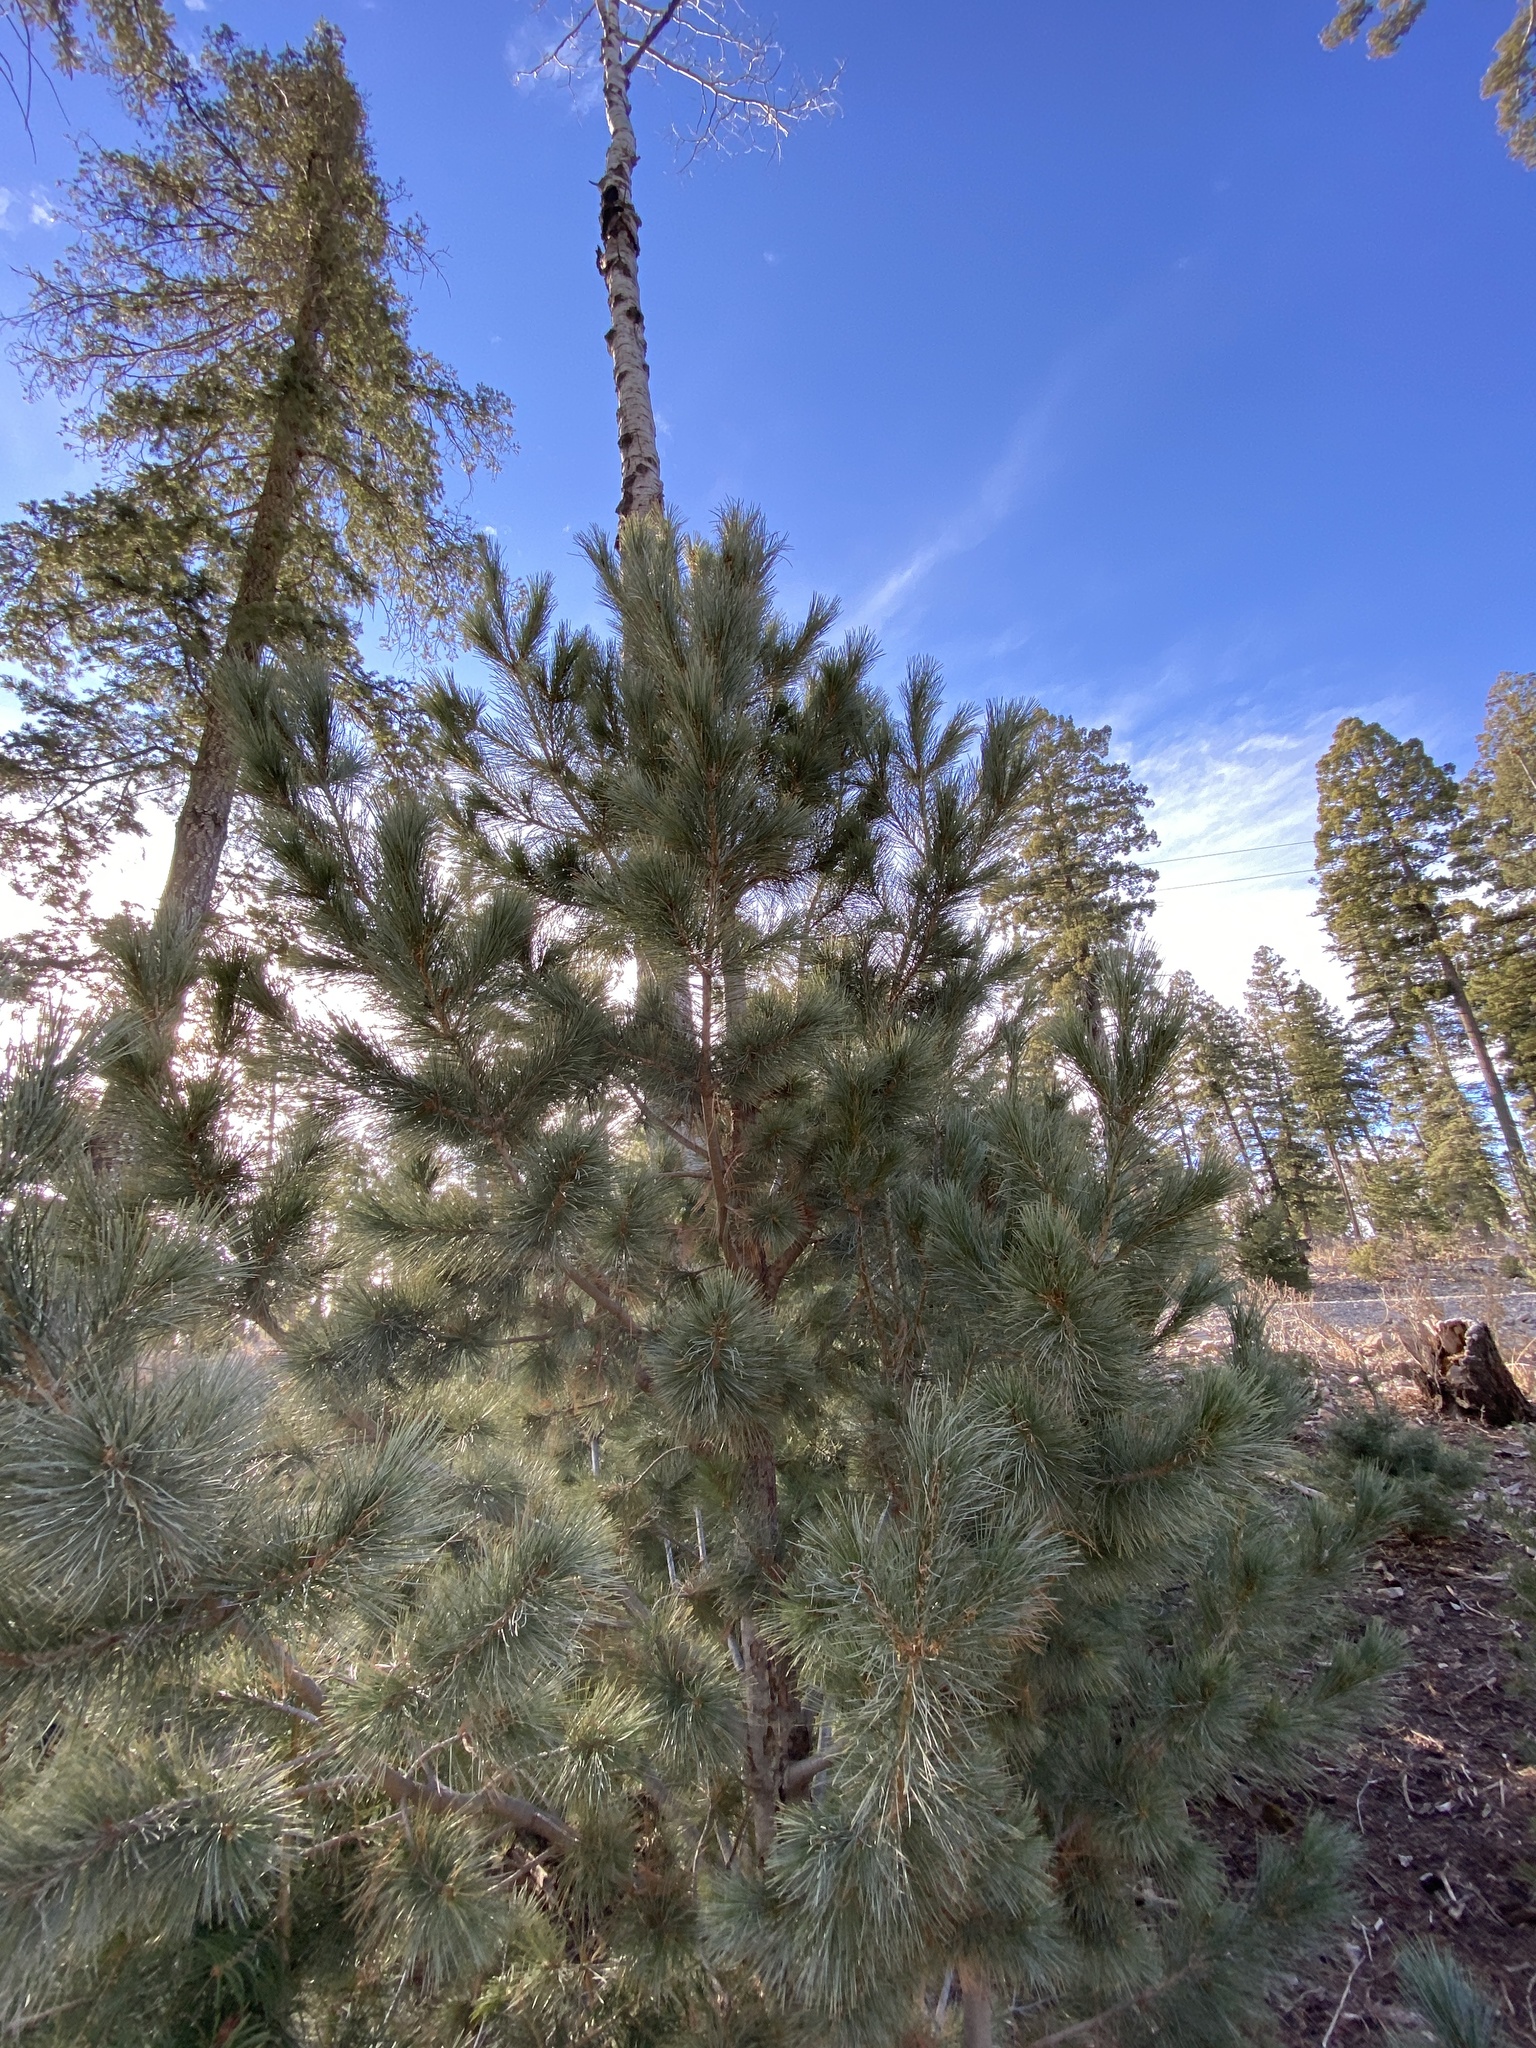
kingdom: Plantae
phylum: Tracheophyta
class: Pinopsida
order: Pinales
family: Pinaceae
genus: Pinus
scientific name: Pinus strobiformis
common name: Southwestern white pine
